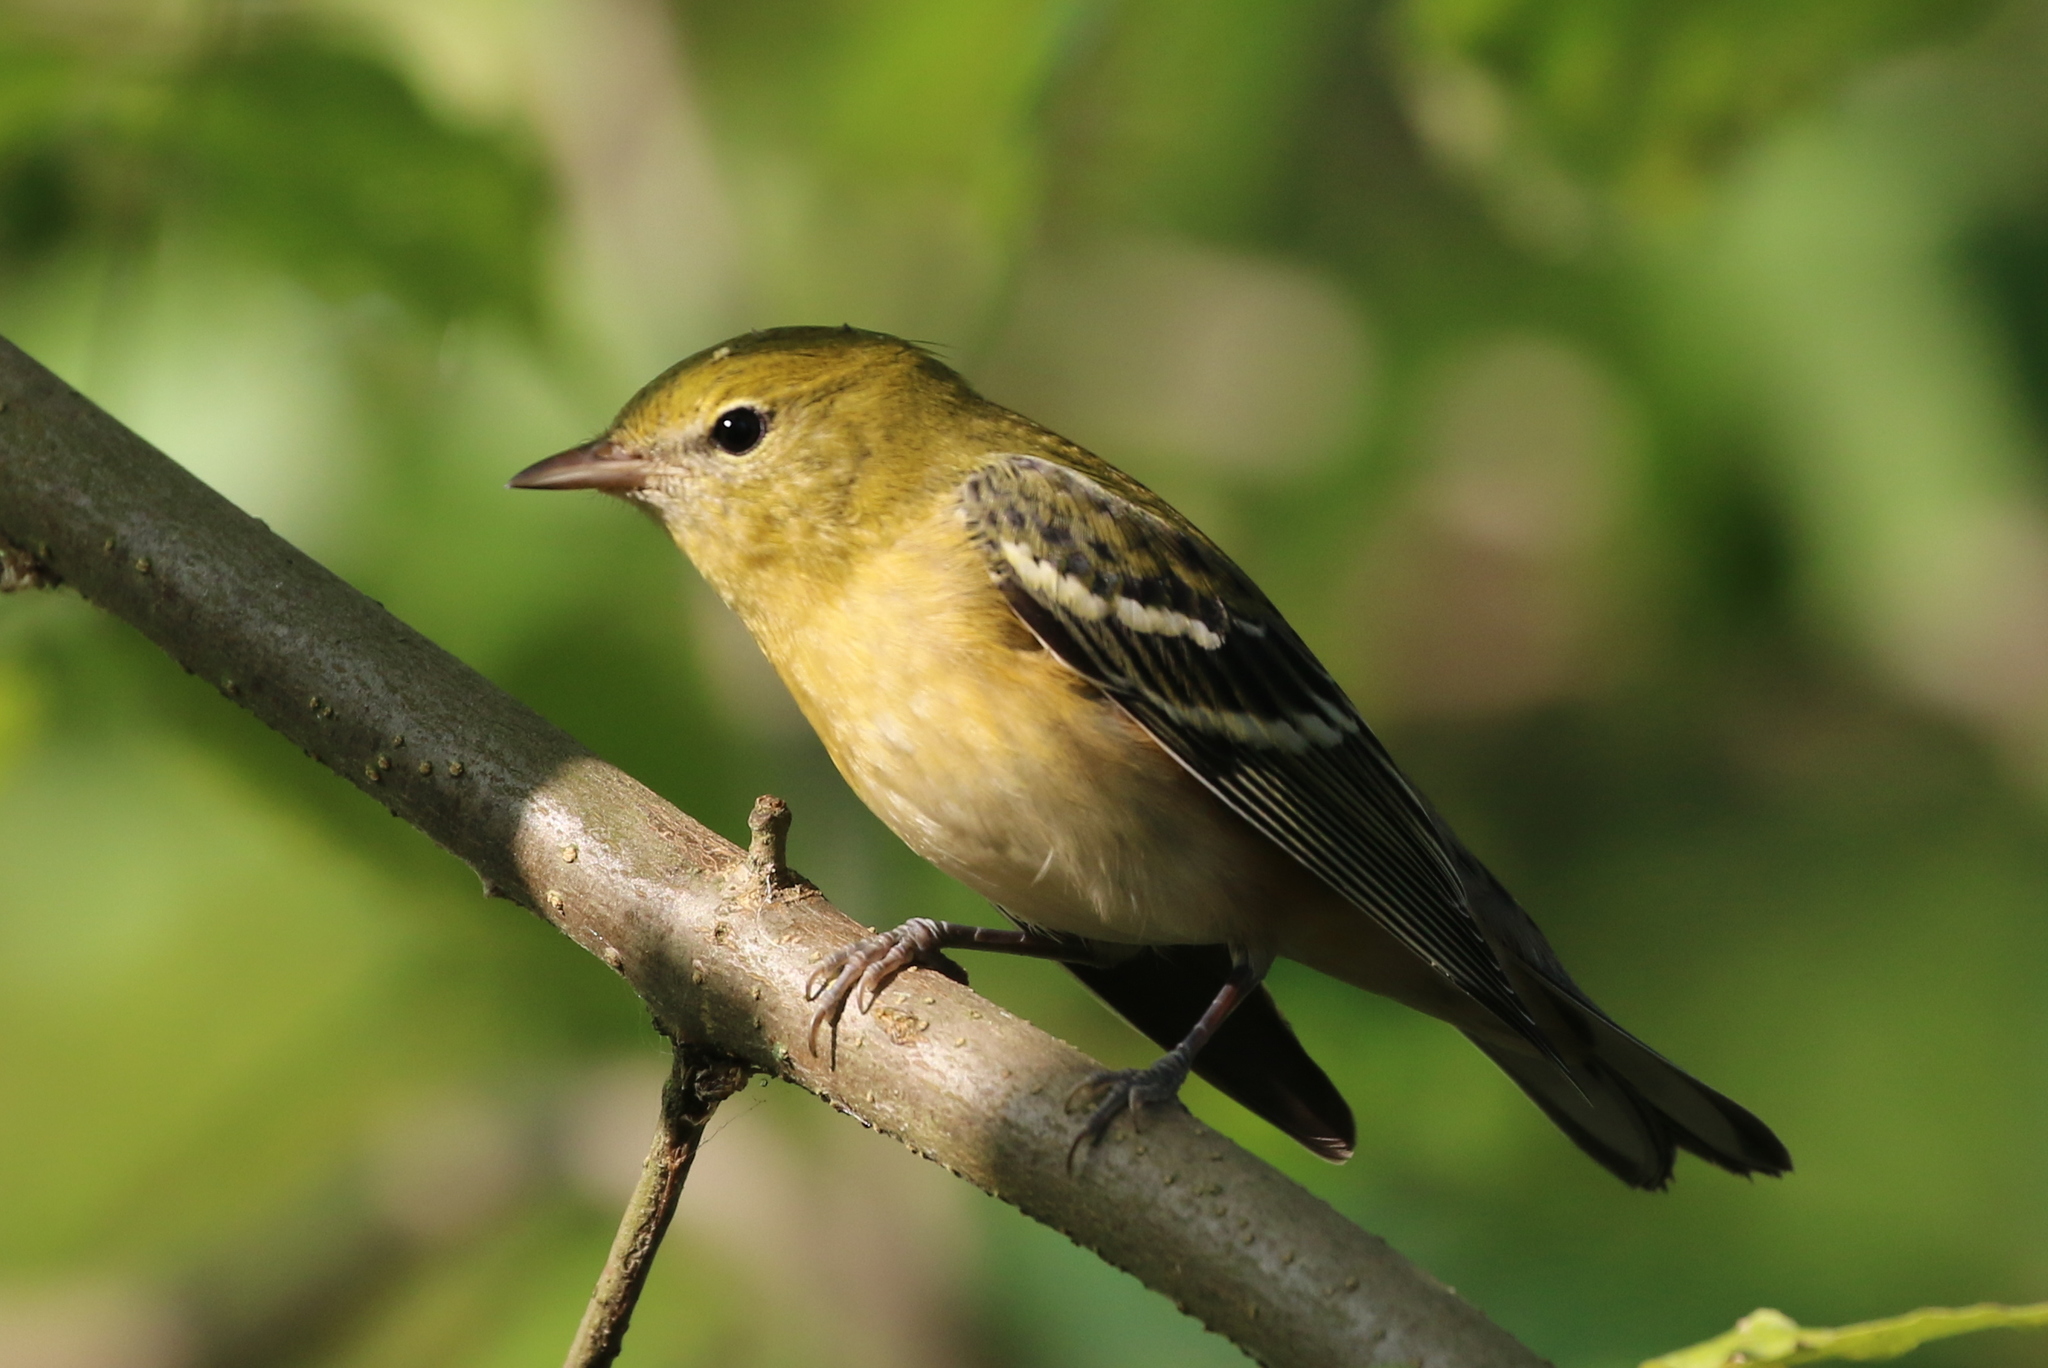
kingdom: Animalia
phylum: Chordata
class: Aves
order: Passeriformes
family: Parulidae
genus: Setophaga
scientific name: Setophaga castanea
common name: Bay-breasted warbler
